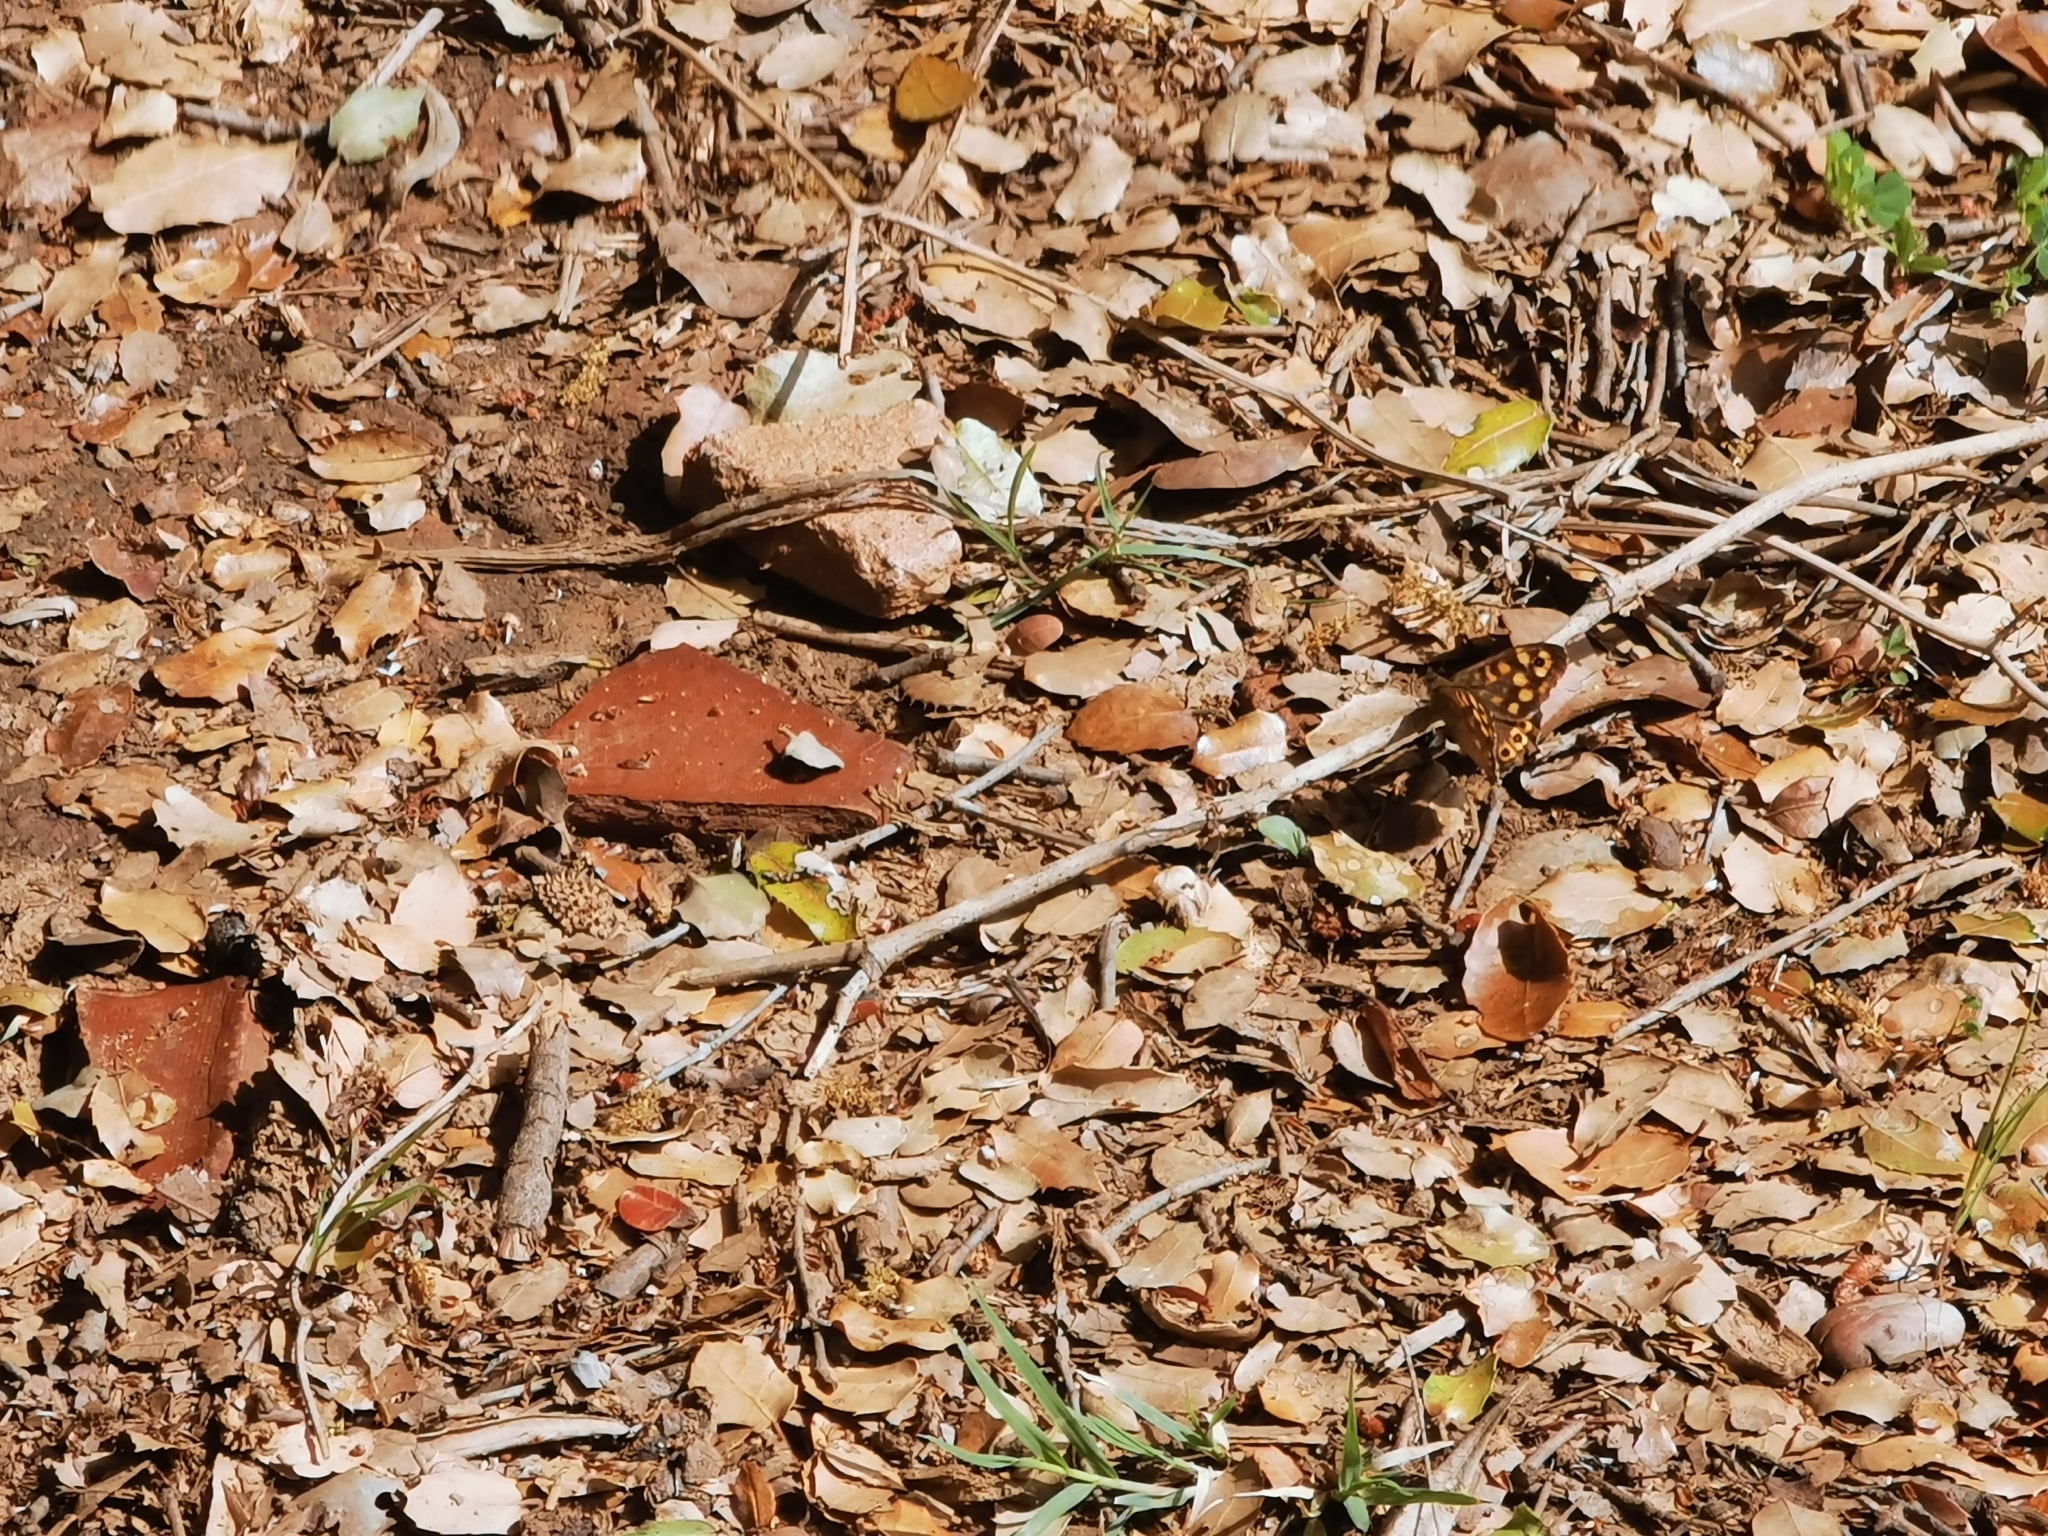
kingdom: Animalia
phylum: Arthropoda
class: Insecta
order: Lepidoptera
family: Nymphalidae
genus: Pararge
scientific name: Pararge aegeria
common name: Speckled wood
